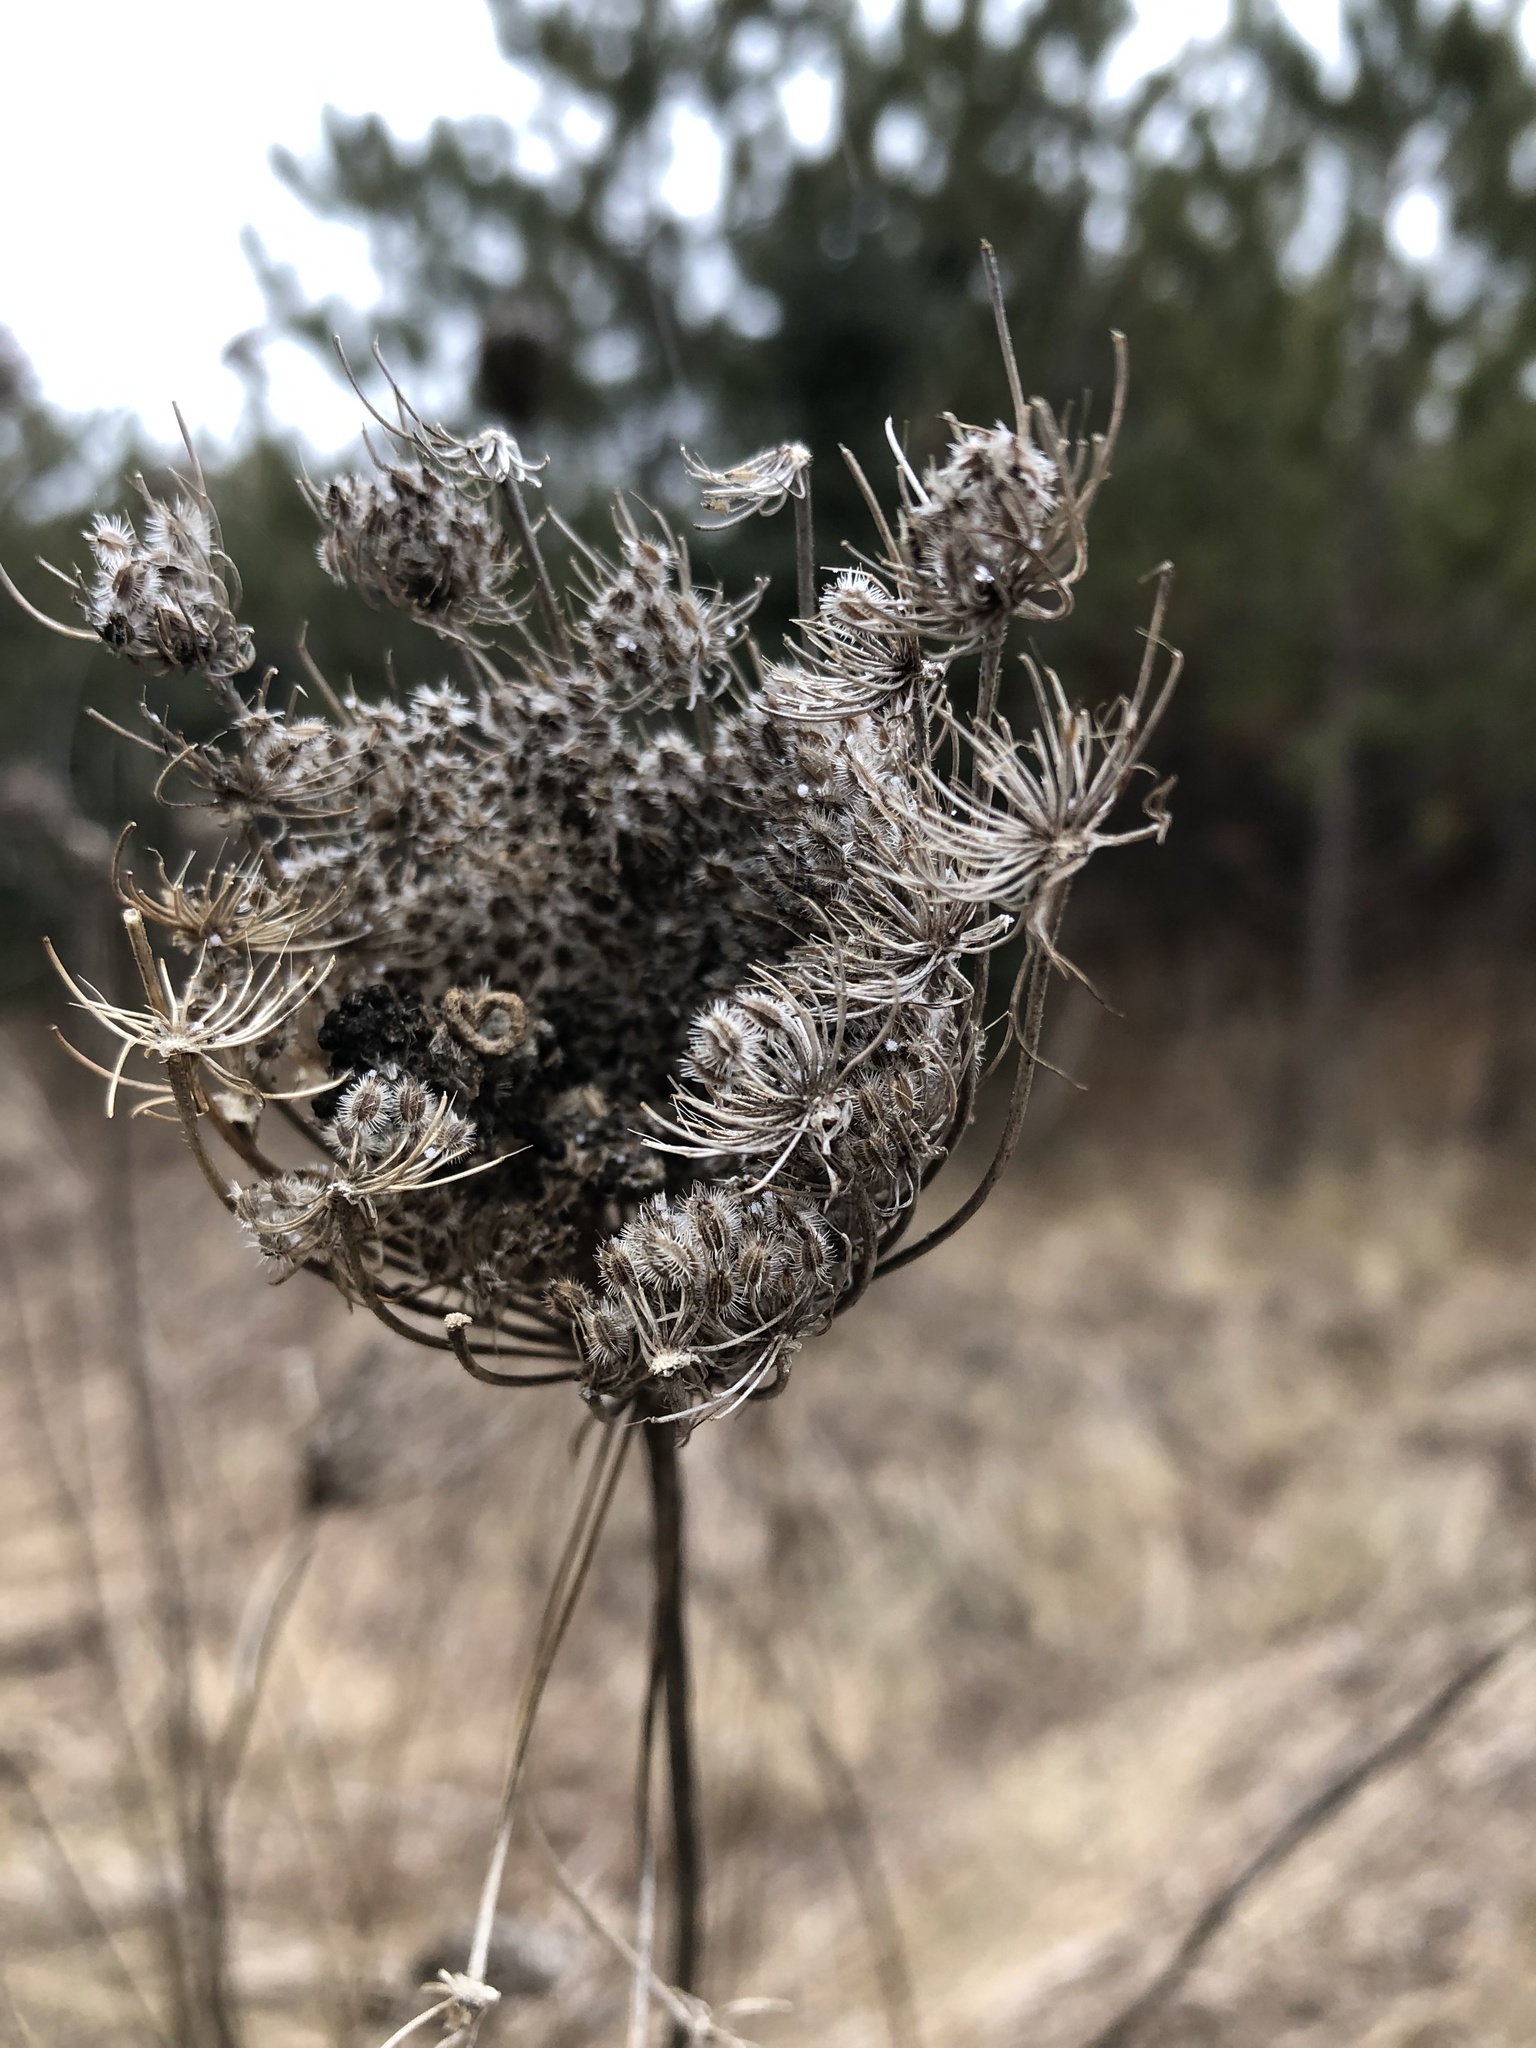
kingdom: Plantae
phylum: Tracheophyta
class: Magnoliopsida
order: Apiales
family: Apiaceae
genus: Daucus
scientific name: Daucus carota
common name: Wild carrot
